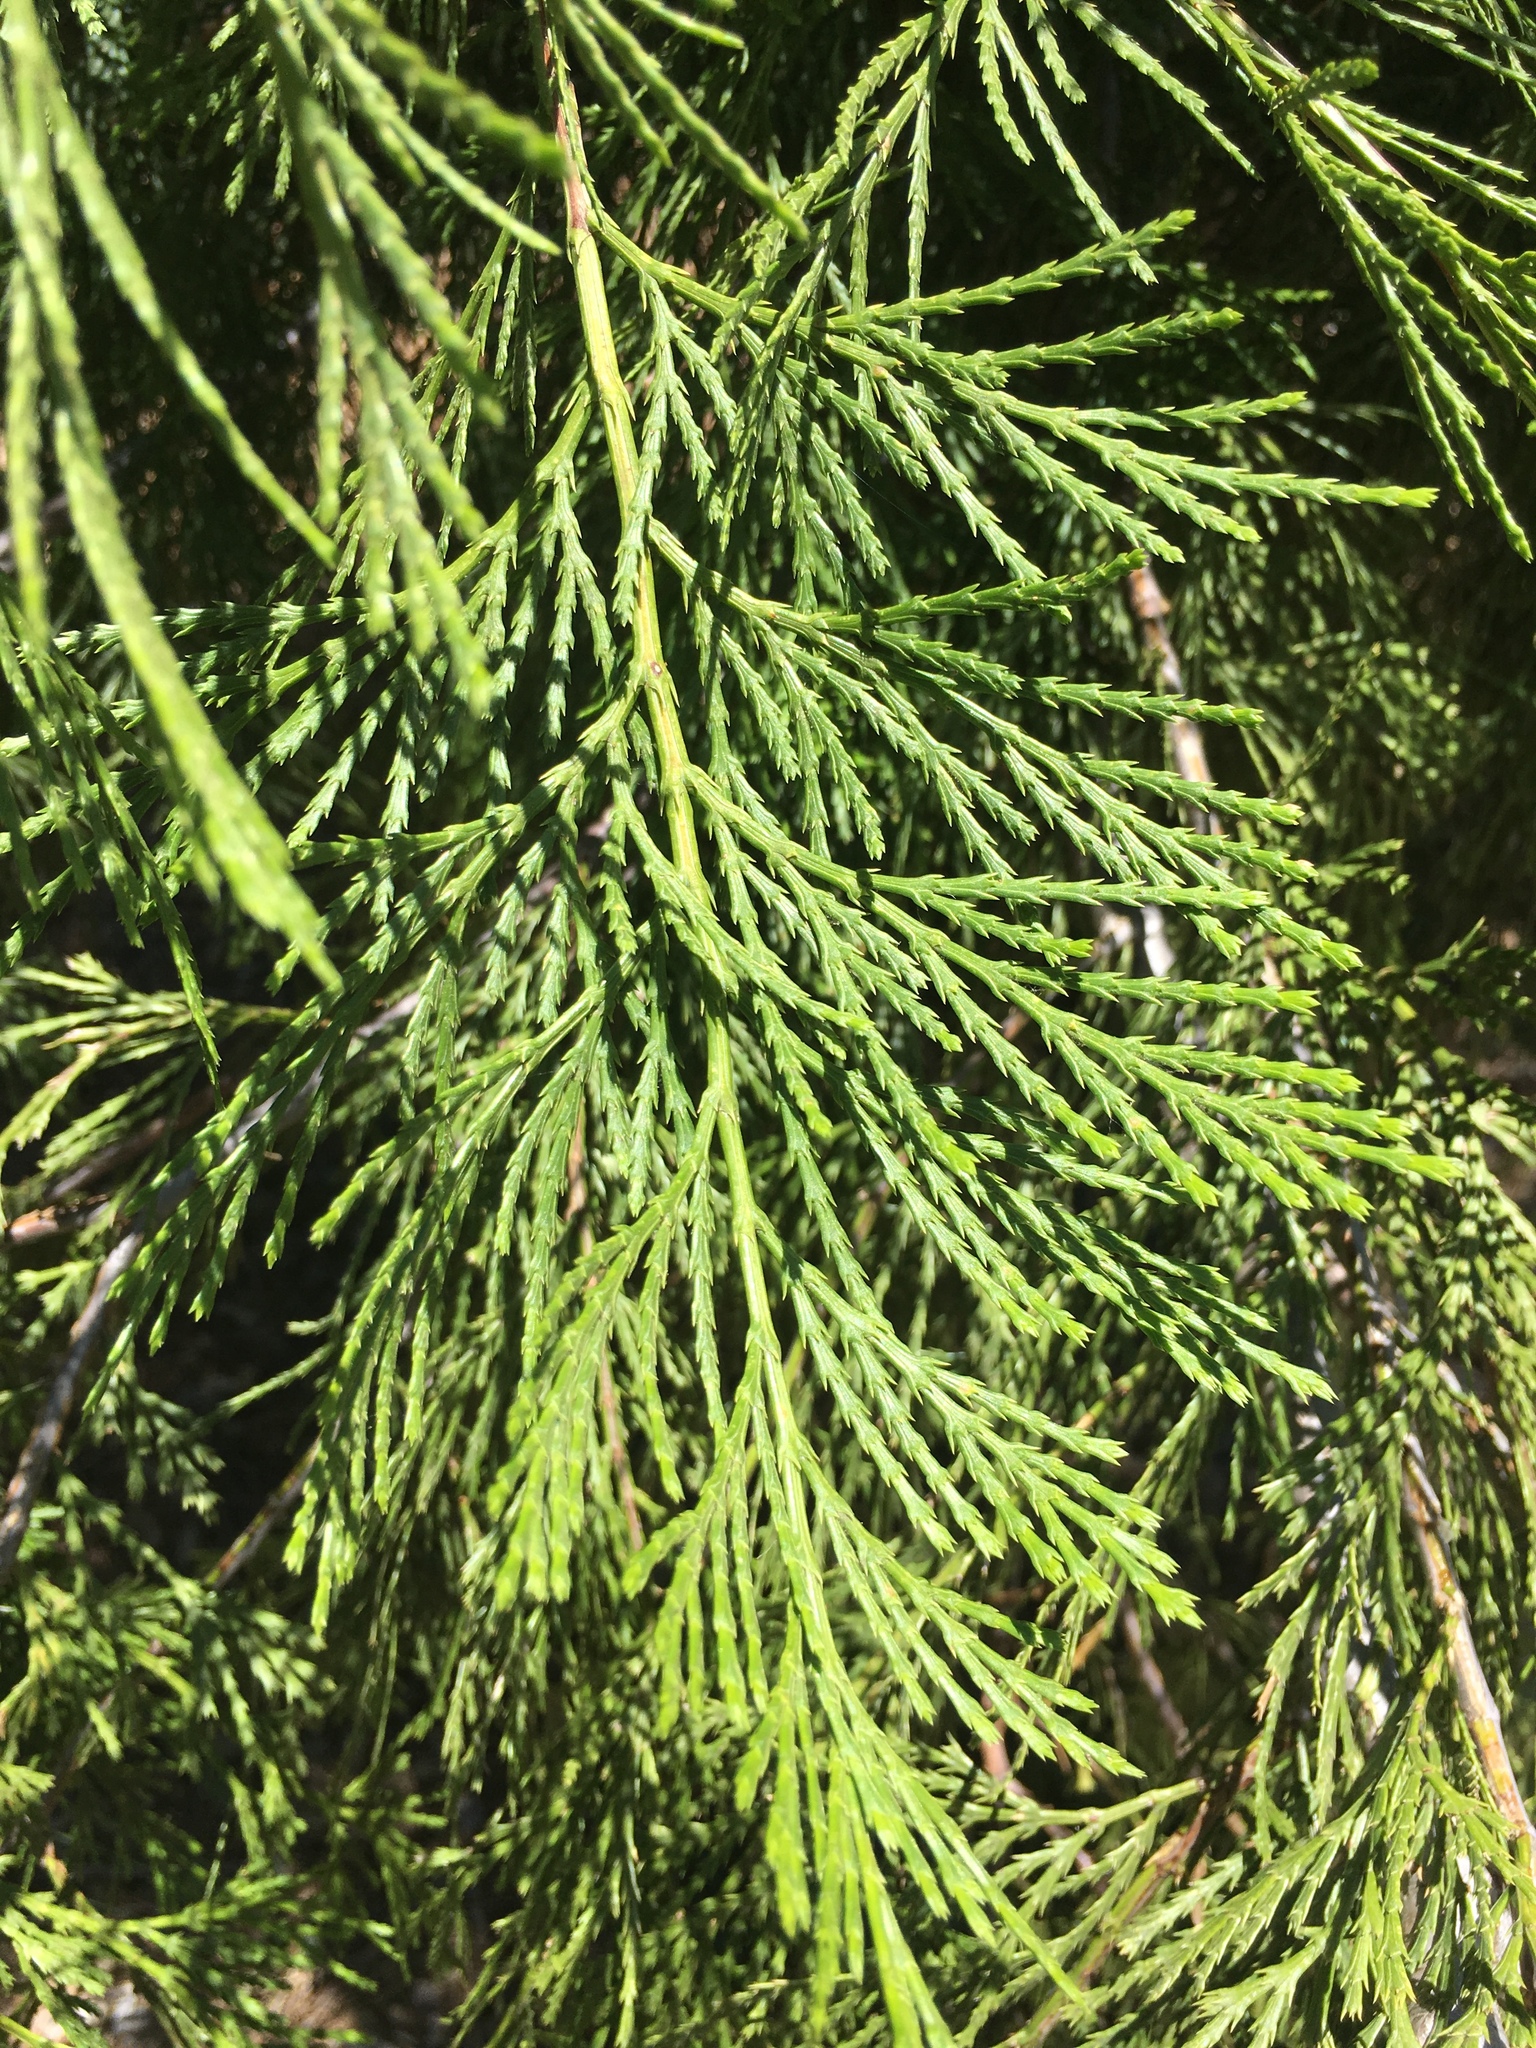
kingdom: Plantae
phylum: Tracheophyta
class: Pinopsida
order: Pinales
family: Cupressaceae
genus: Calocedrus
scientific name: Calocedrus decurrens
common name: Californian incense-cedar
